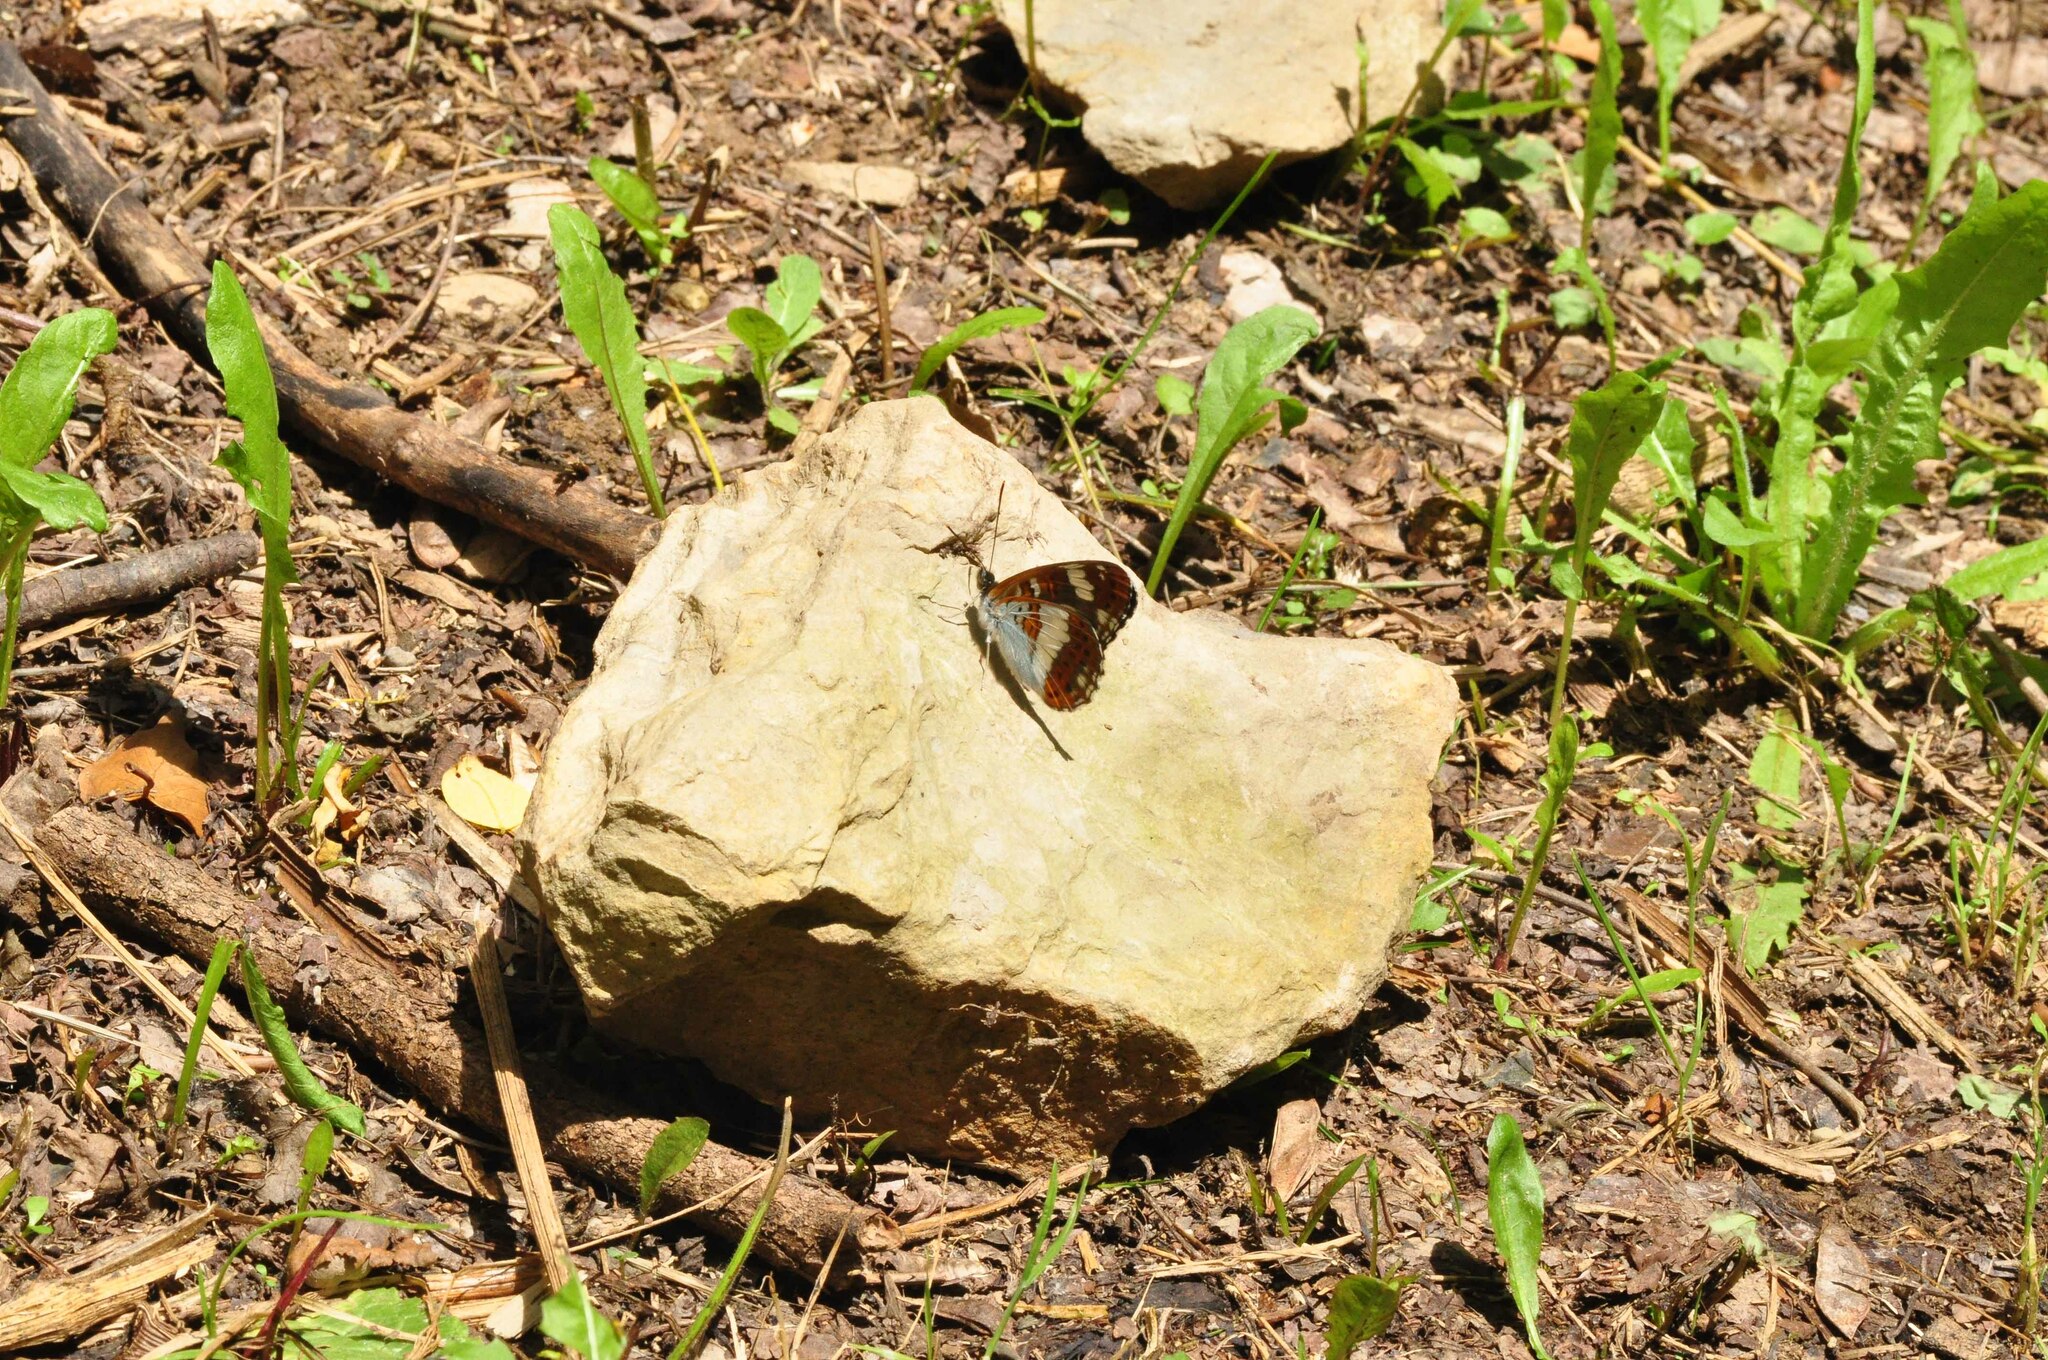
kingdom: Animalia
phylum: Arthropoda
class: Insecta
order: Lepidoptera
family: Nymphalidae
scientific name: Nymphalidae
